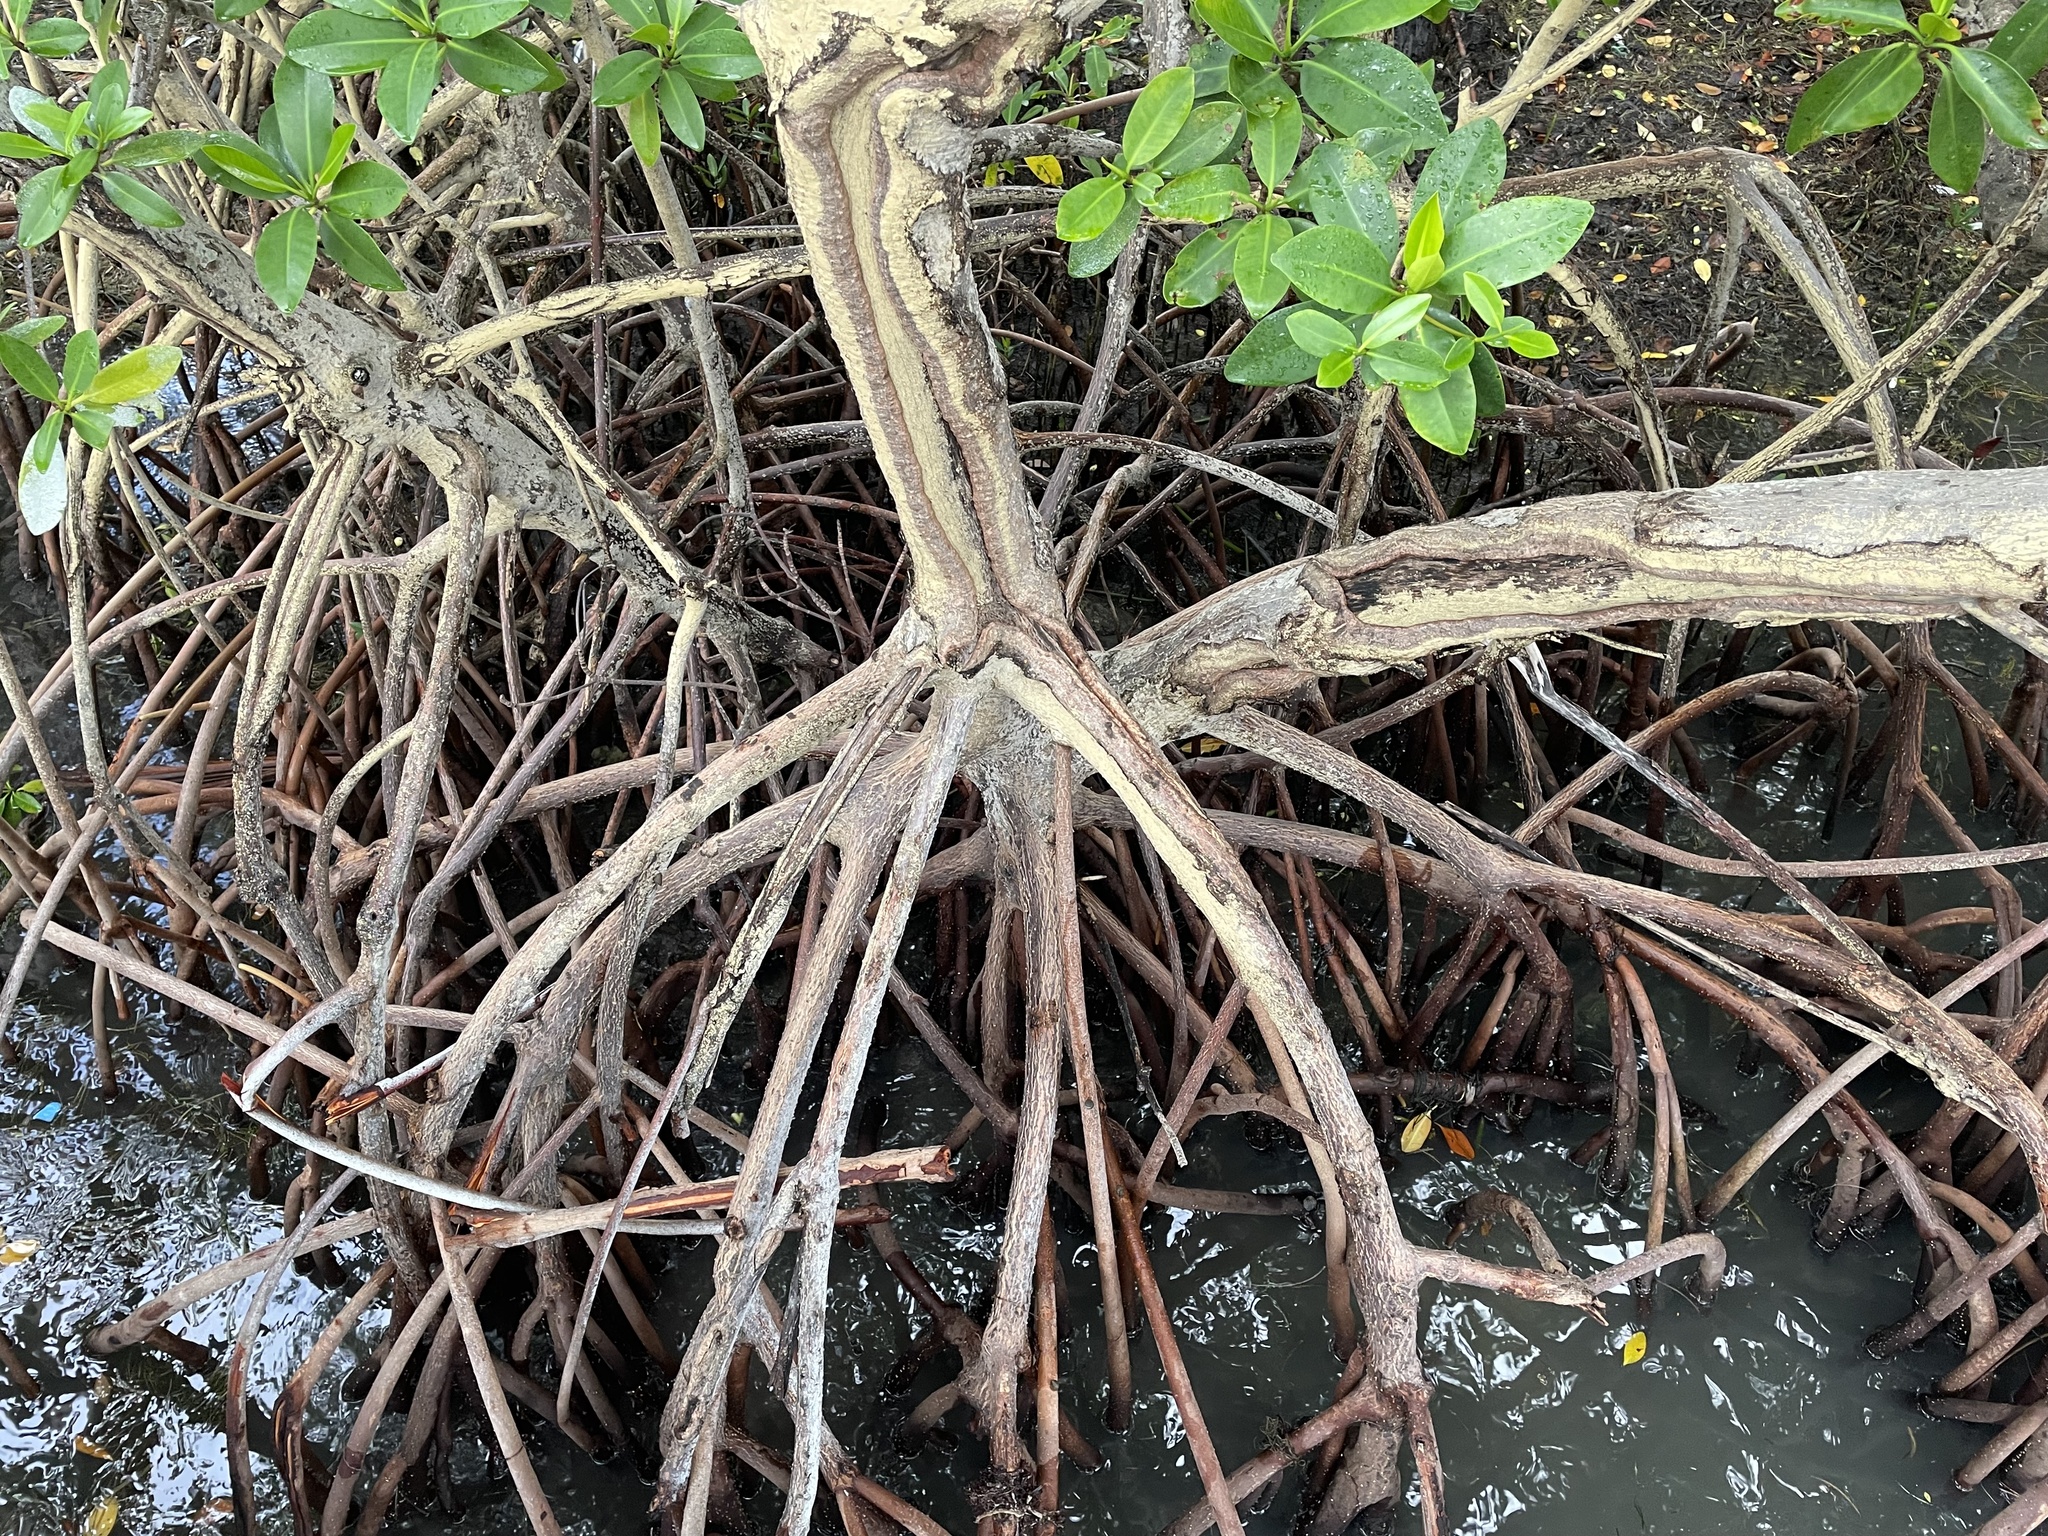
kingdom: Plantae
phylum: Tracheophyta
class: Magnoliopsida
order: Malpighiales
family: Rhizophoraceae
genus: Rhizophora
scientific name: Rhizophora mangle
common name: Red mangrove
